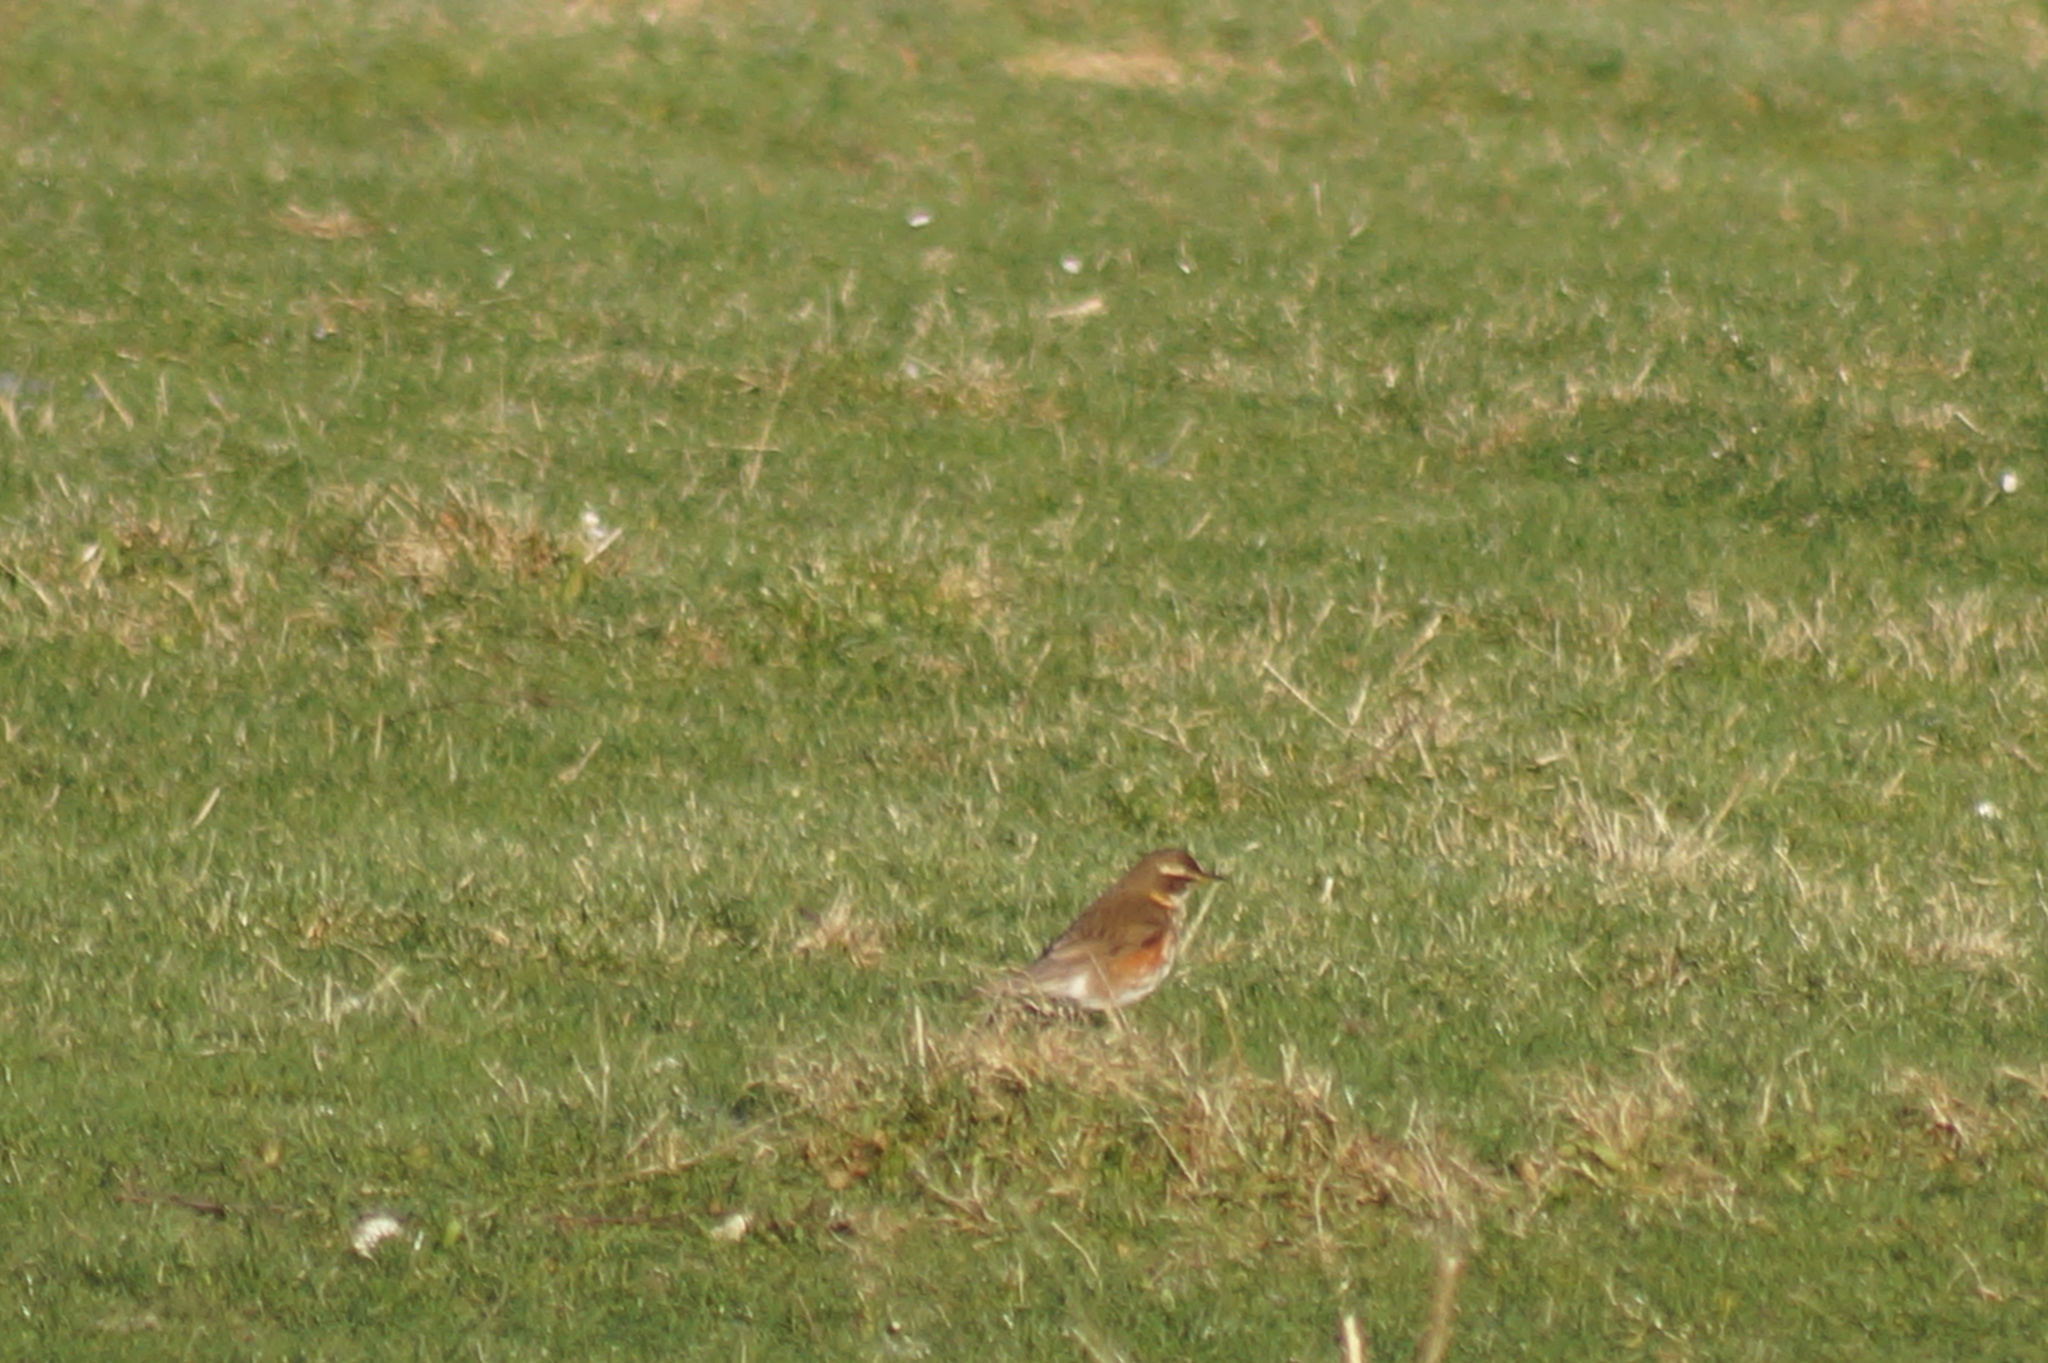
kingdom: Animalia
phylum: Chordata
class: Aves
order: Passeriformes
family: Turdidae
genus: Turdus
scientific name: Turdus iliacus
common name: Redwing
